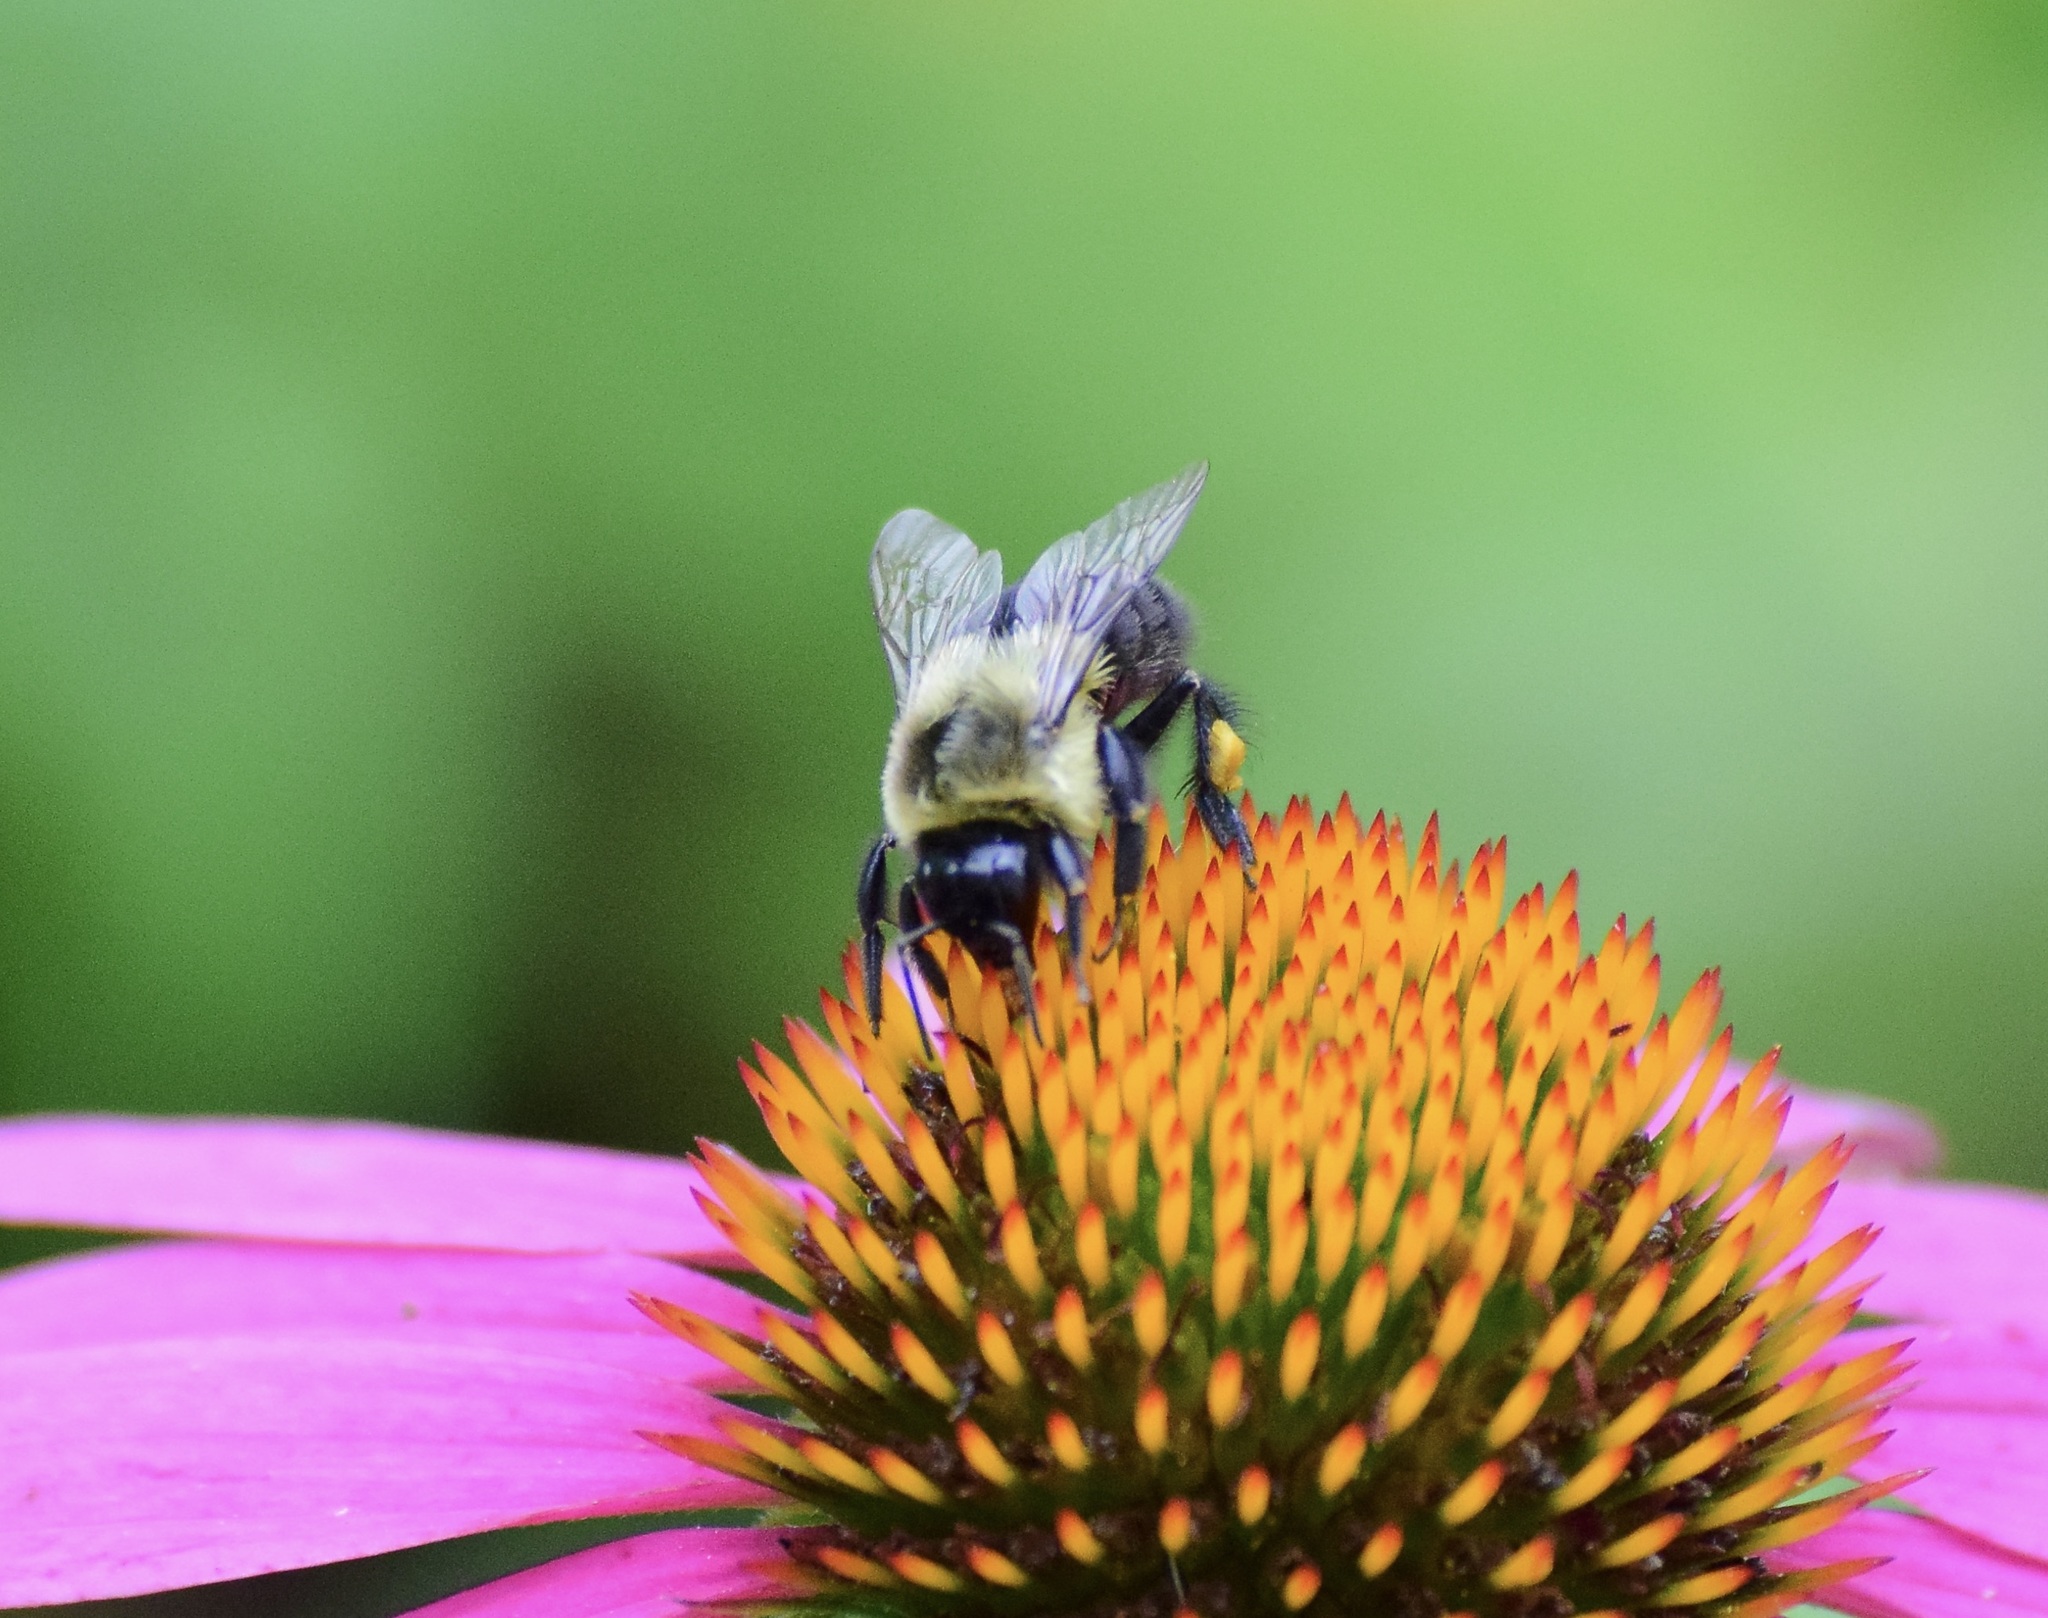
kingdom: Animalia
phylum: Arthropoda
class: Insecta
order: Hymenoptera
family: Apidae
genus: Bombus
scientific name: Bombus impatiens
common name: Common eastern bumble bee
